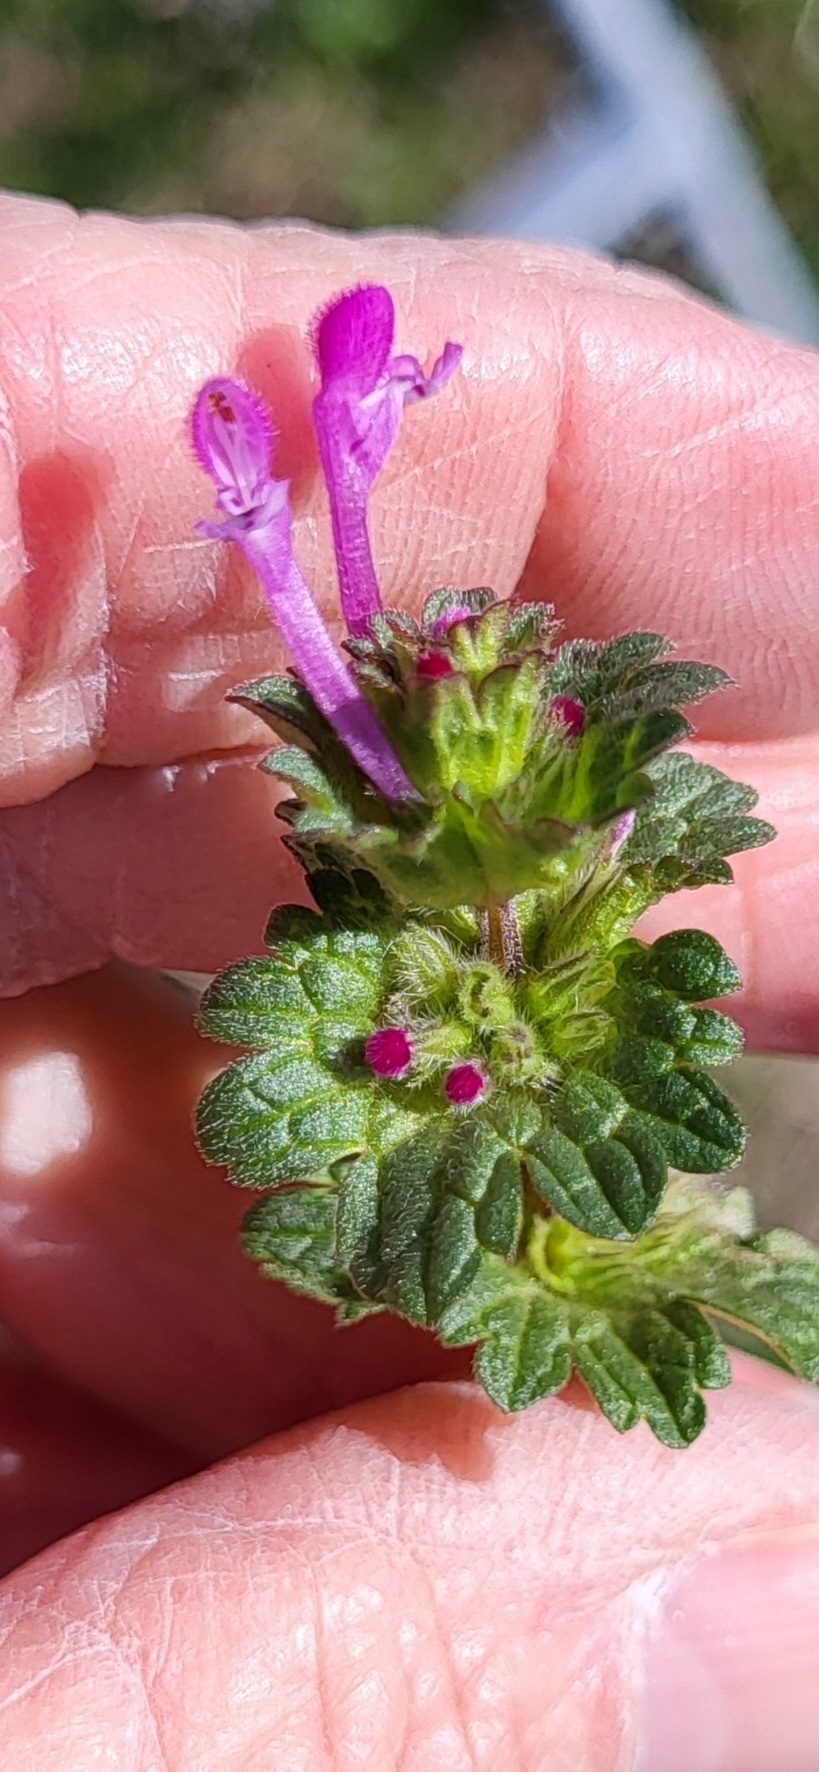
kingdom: Plantae
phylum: Tracheophyta
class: Magnoliopsida
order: Lamiales
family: Lamiaceae
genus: Lamium
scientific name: Lamium amplexicaule
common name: Henbit dead-nettle
